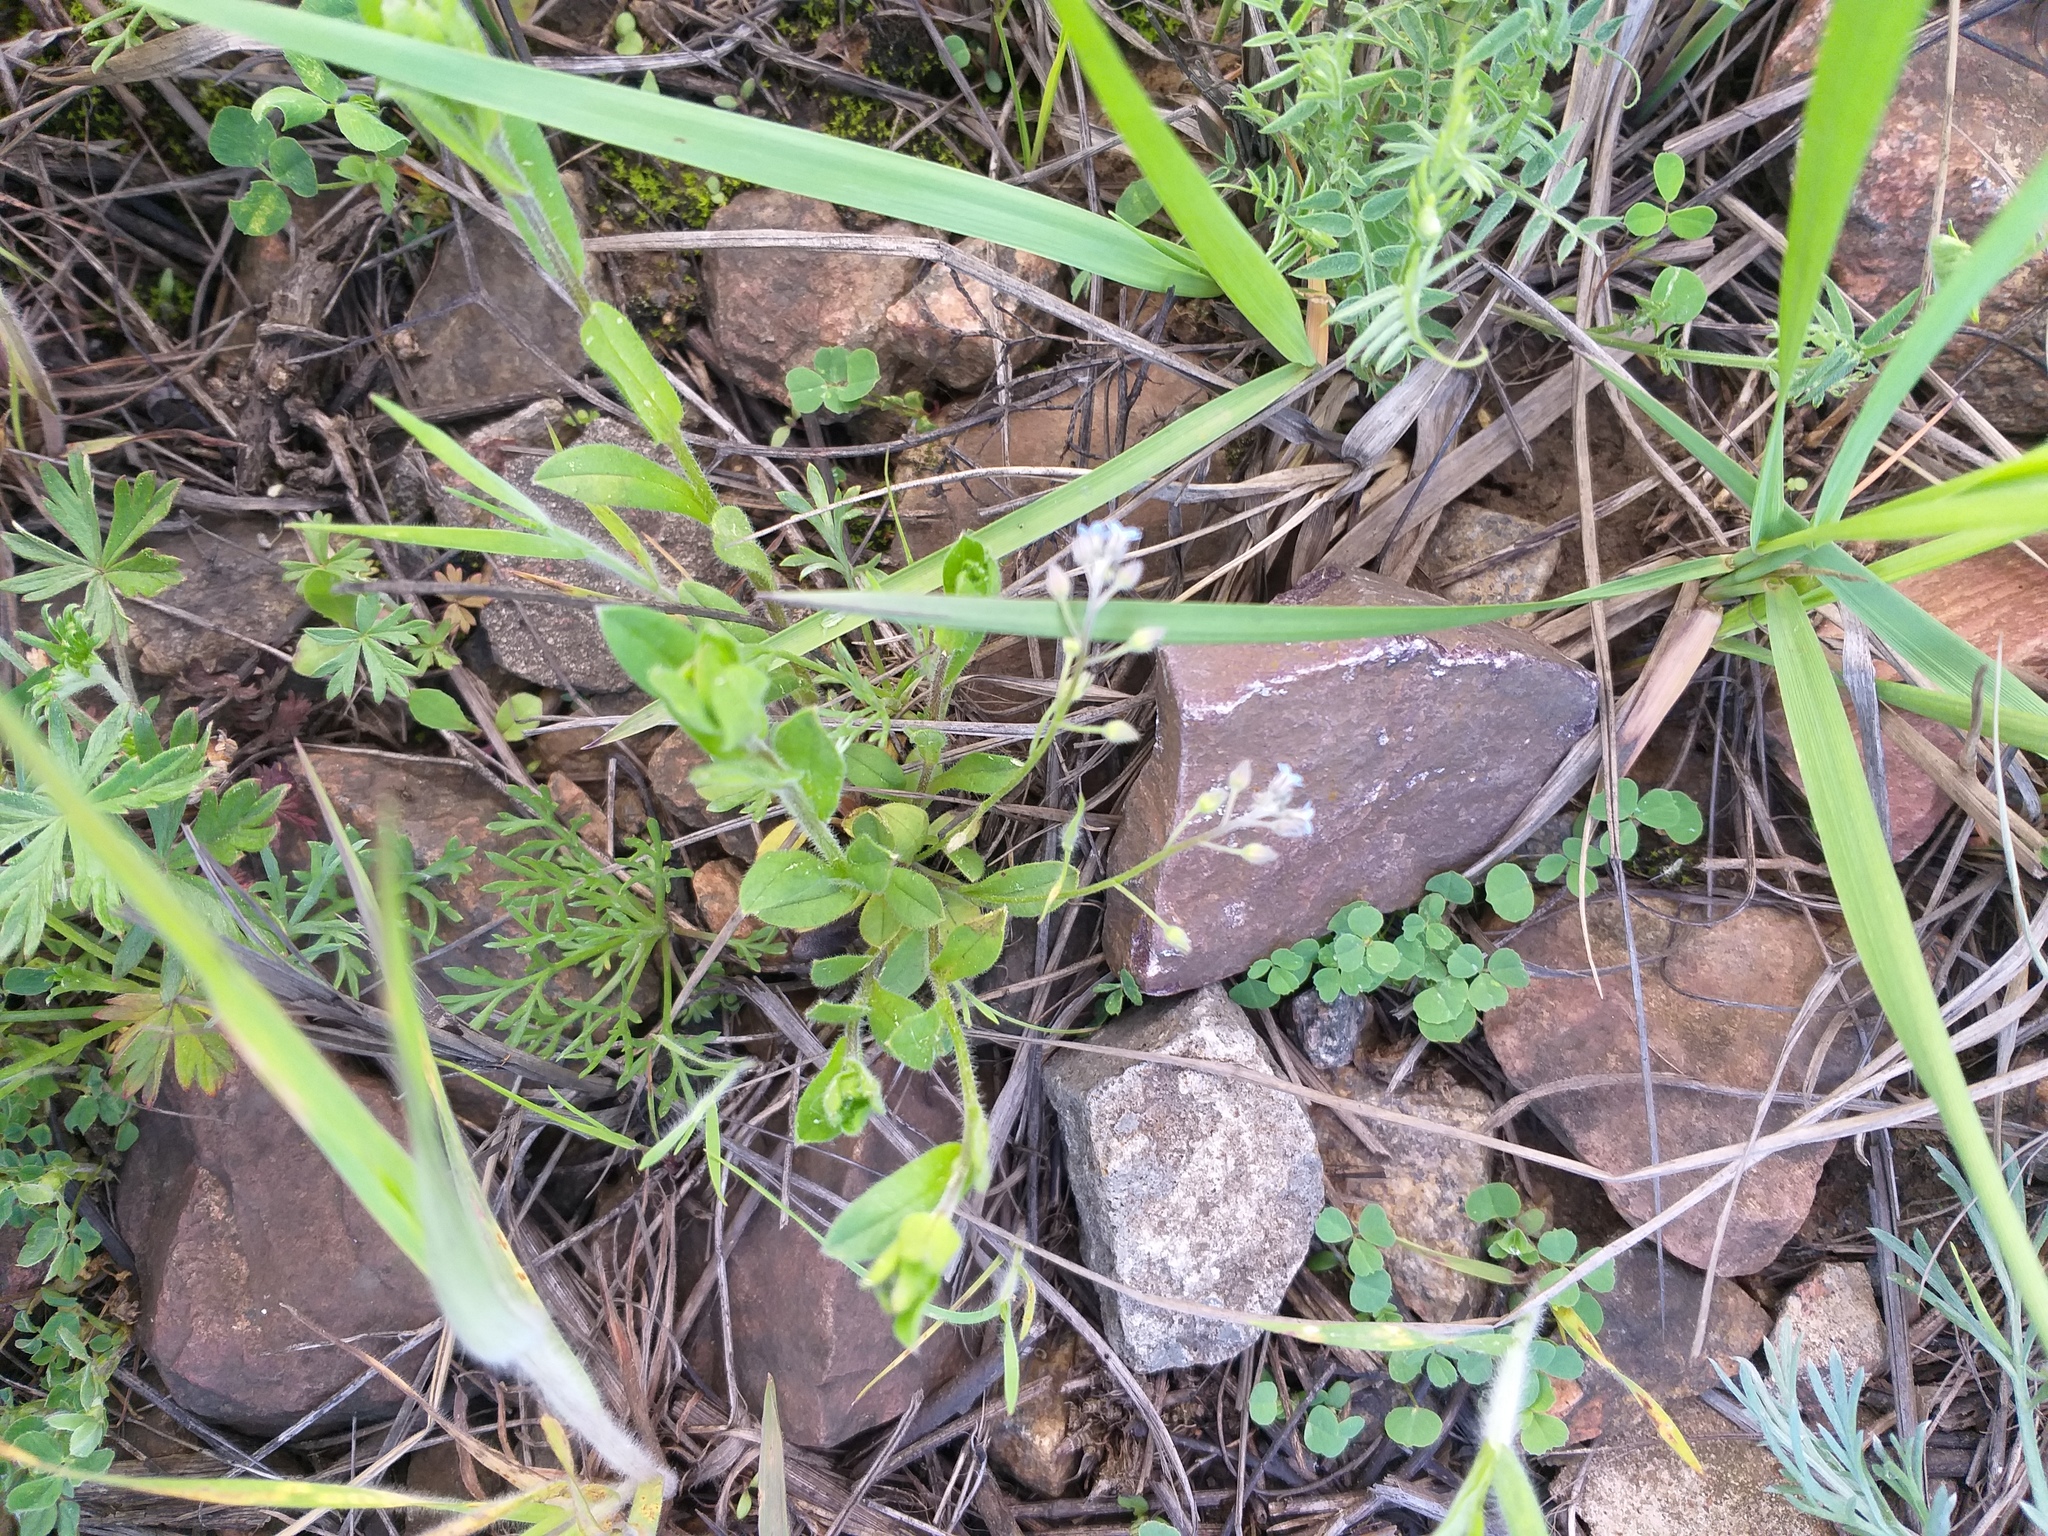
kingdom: Plantae
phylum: Tracheophyta
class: Magnoliopsida
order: Boraginales
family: Boraginaceae
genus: Myosotis
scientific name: Myosotis arvensis
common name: Field forget-me-not
